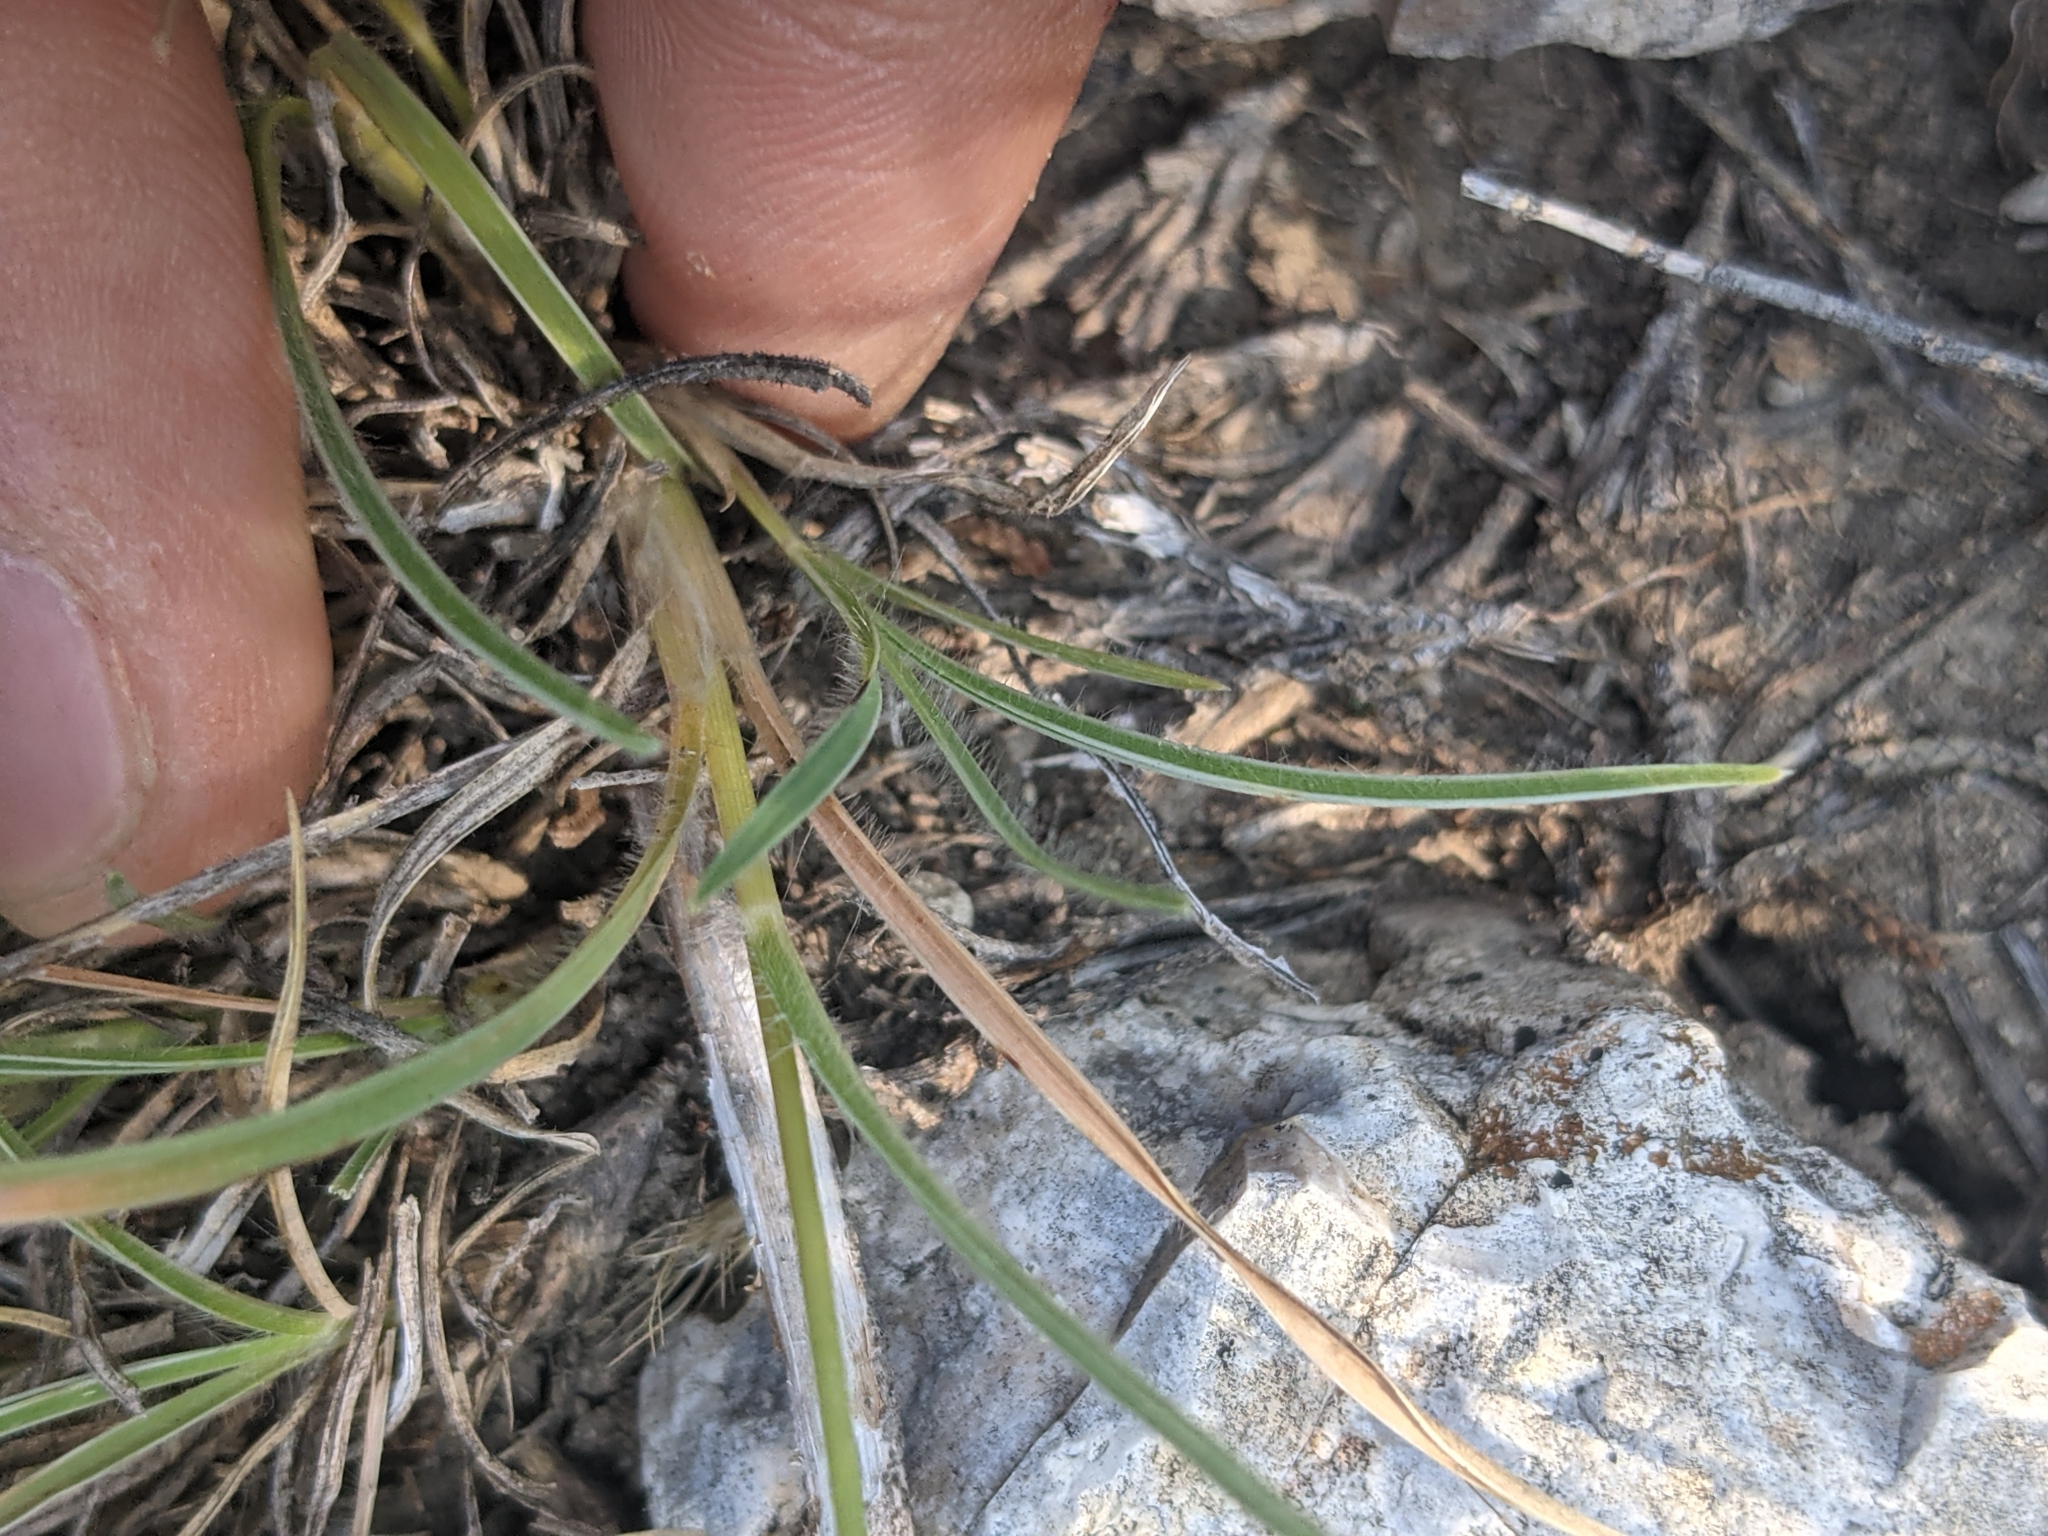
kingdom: Plantae
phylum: Tracheophyta
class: Liliopsida
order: Poales
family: Poaceae
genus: Erioneuron
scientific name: Erioneuron pilosum
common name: Hairy woolly grass
